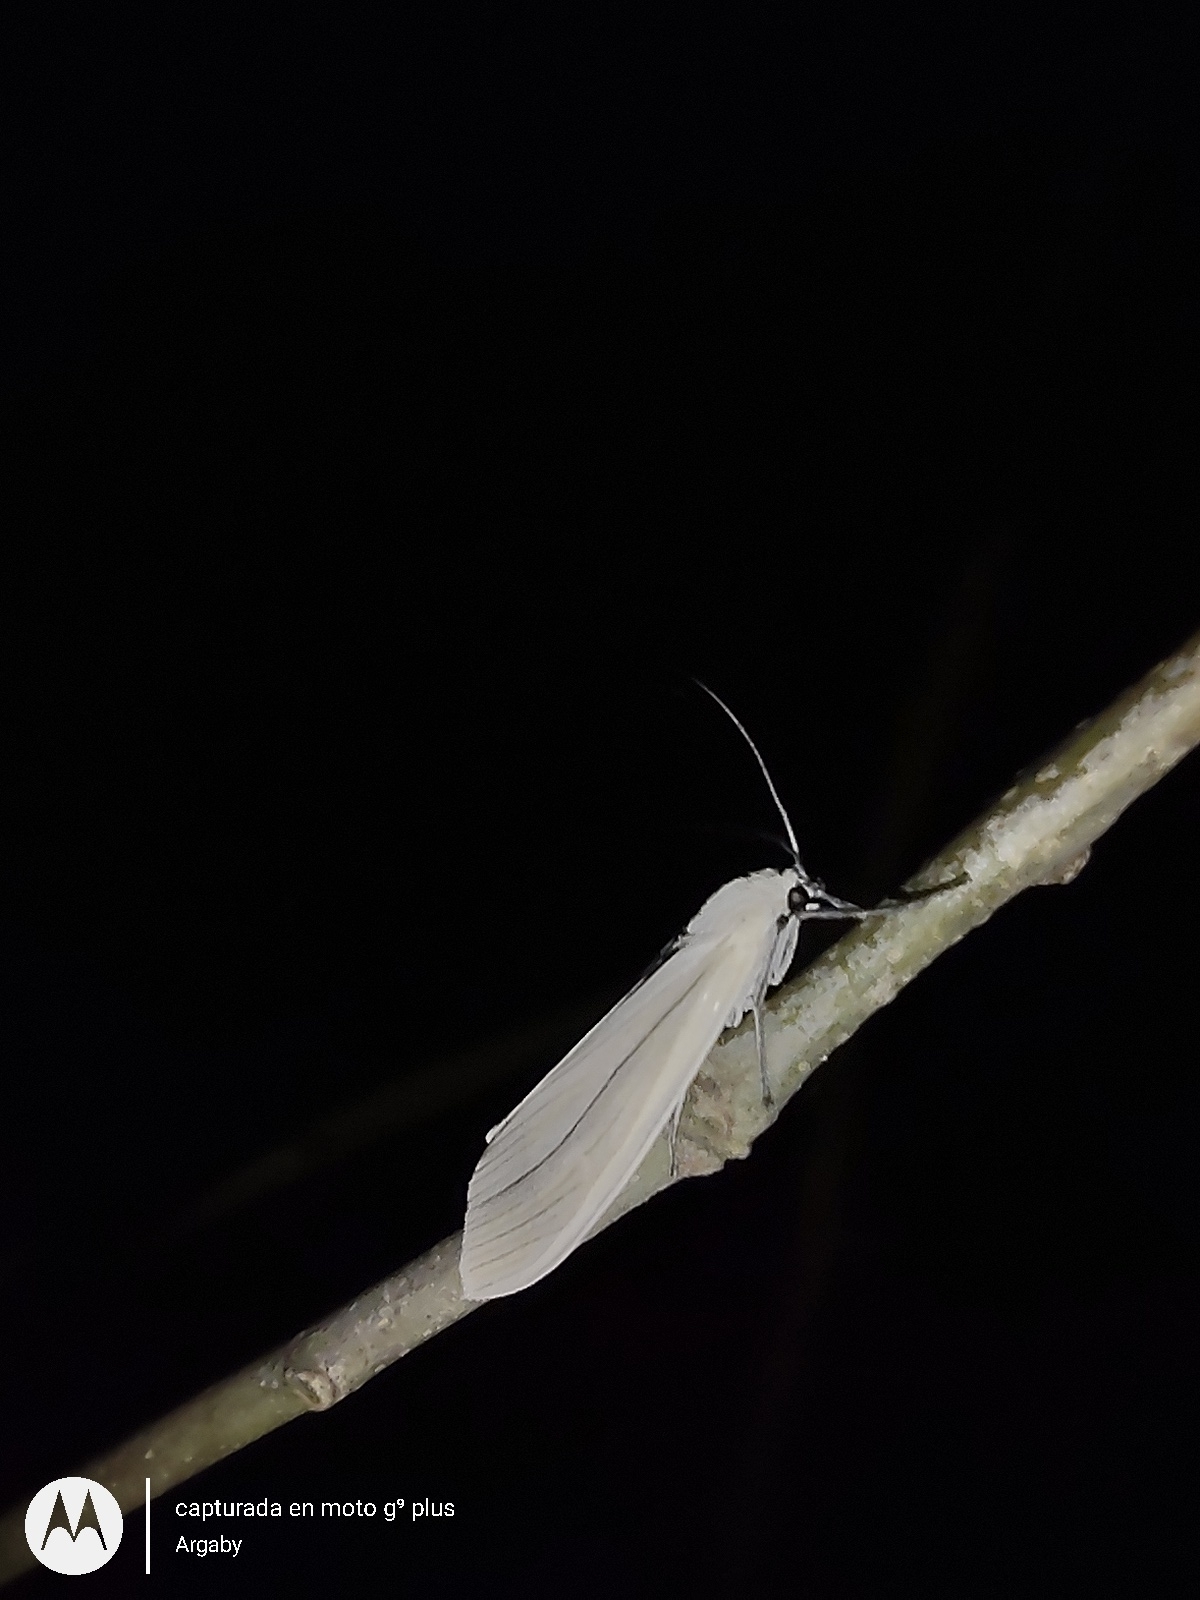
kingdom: Animalia
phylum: Arthropoda
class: Insecta
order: Lepidoptera
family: Erebidae
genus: Biturix
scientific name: Biturix rectilinea
